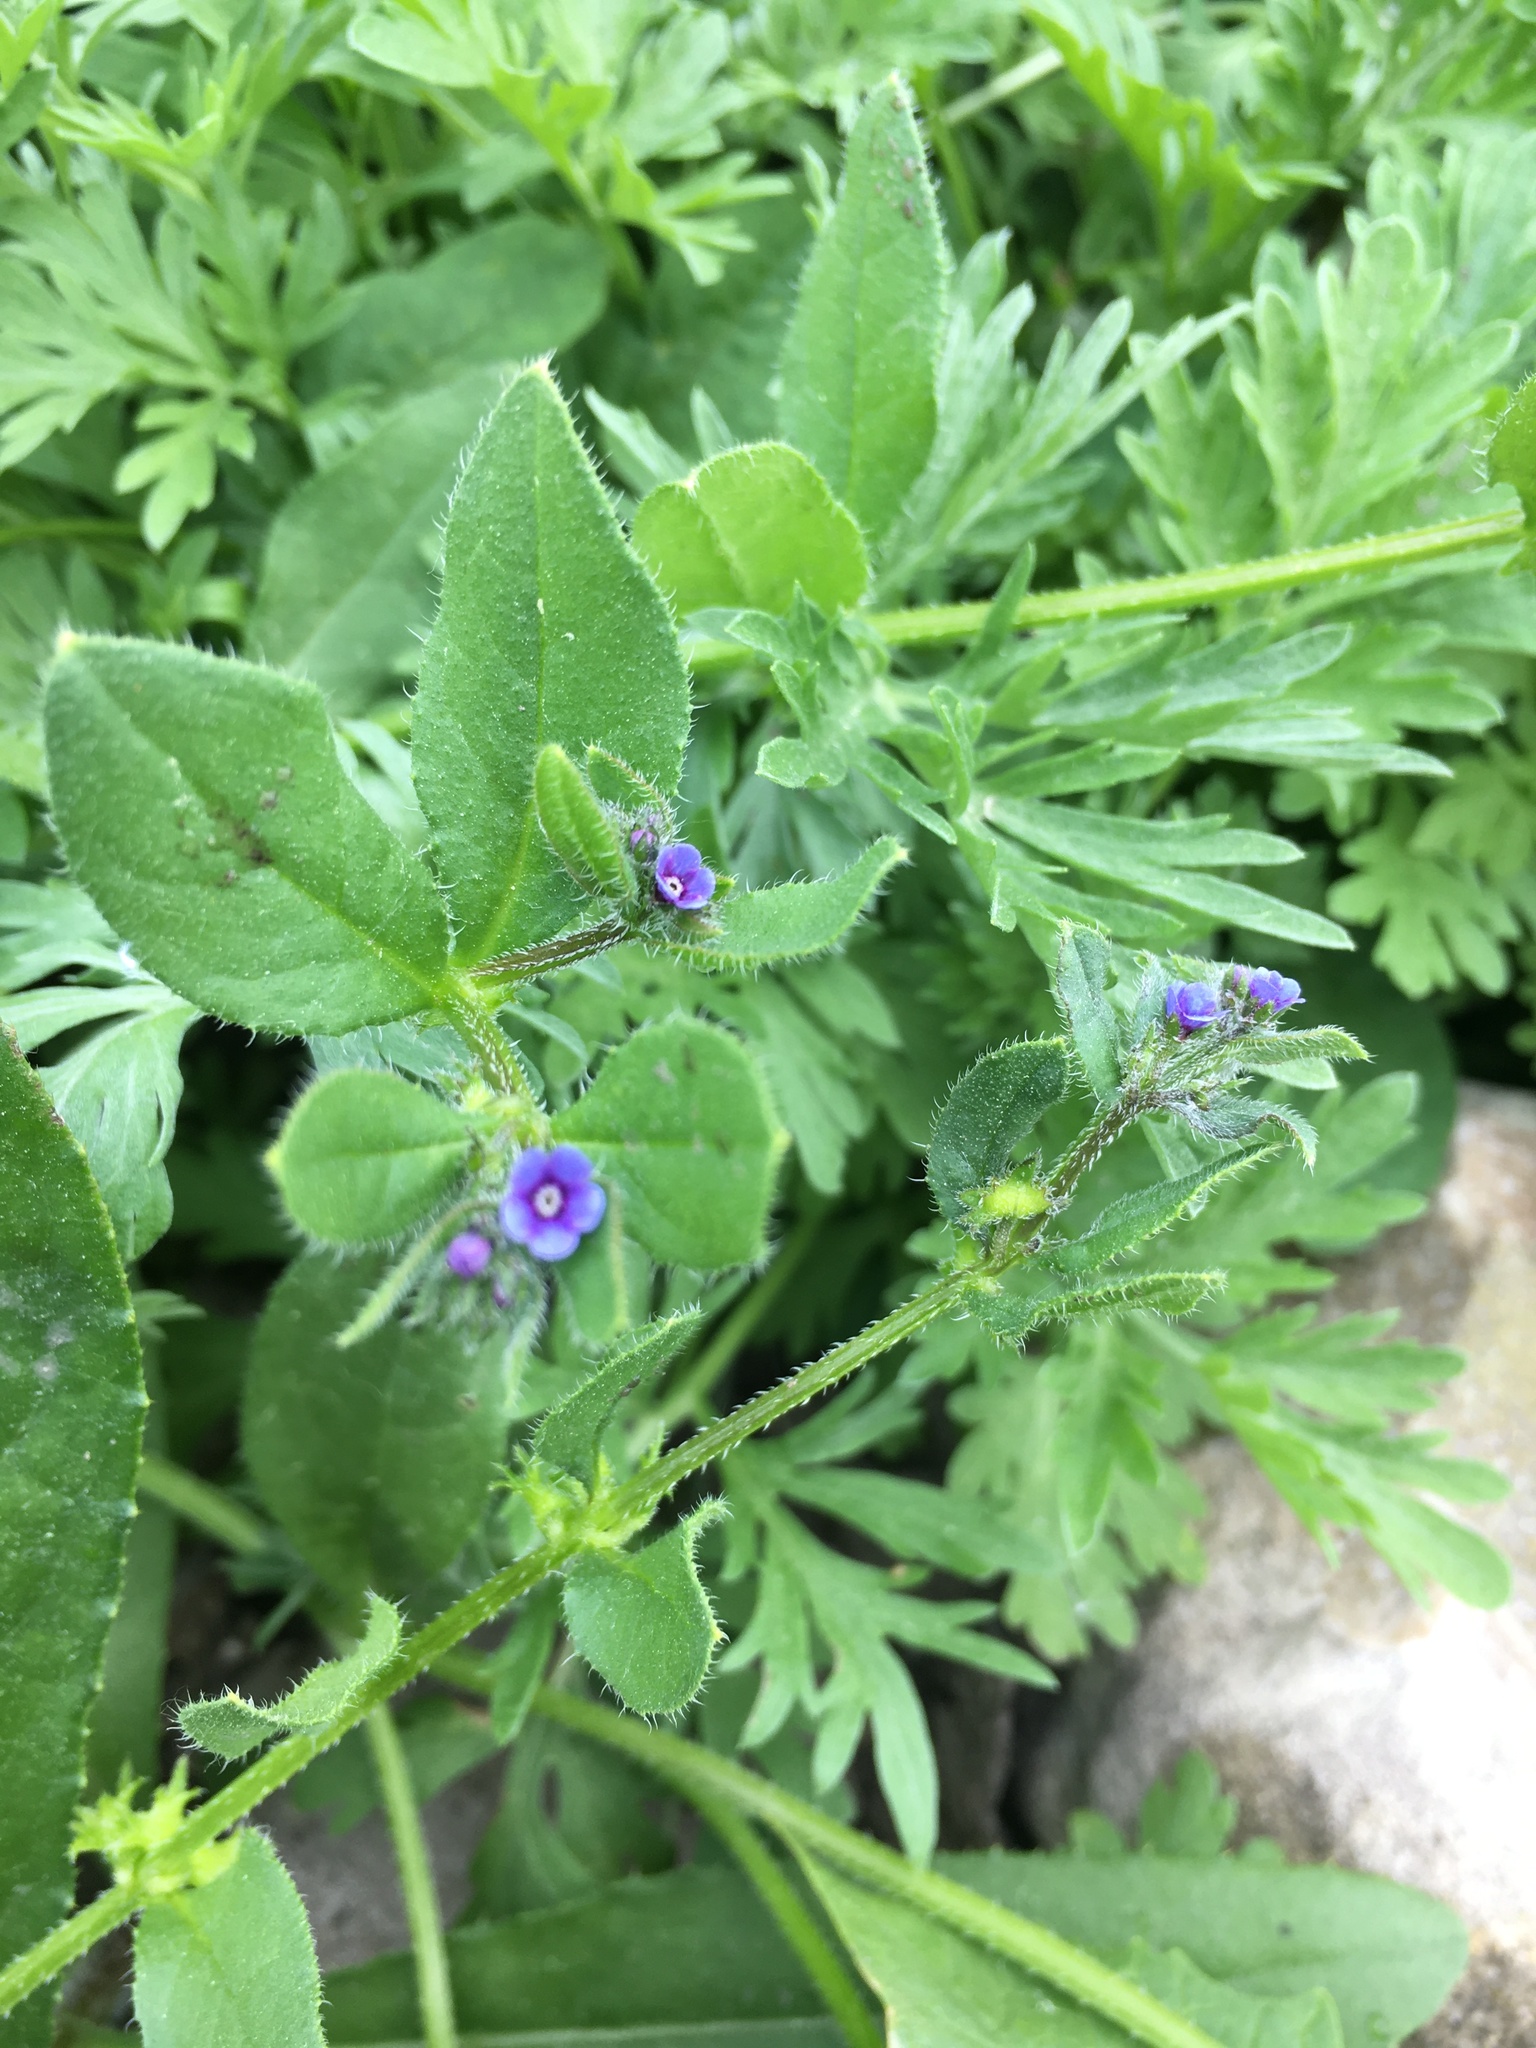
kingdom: Plantae
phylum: Tracheophyta
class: Magnoliopsida
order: Boraginales
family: Boraginaceae
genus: Asperugo
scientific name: Asperugo procumbens
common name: Madwort
